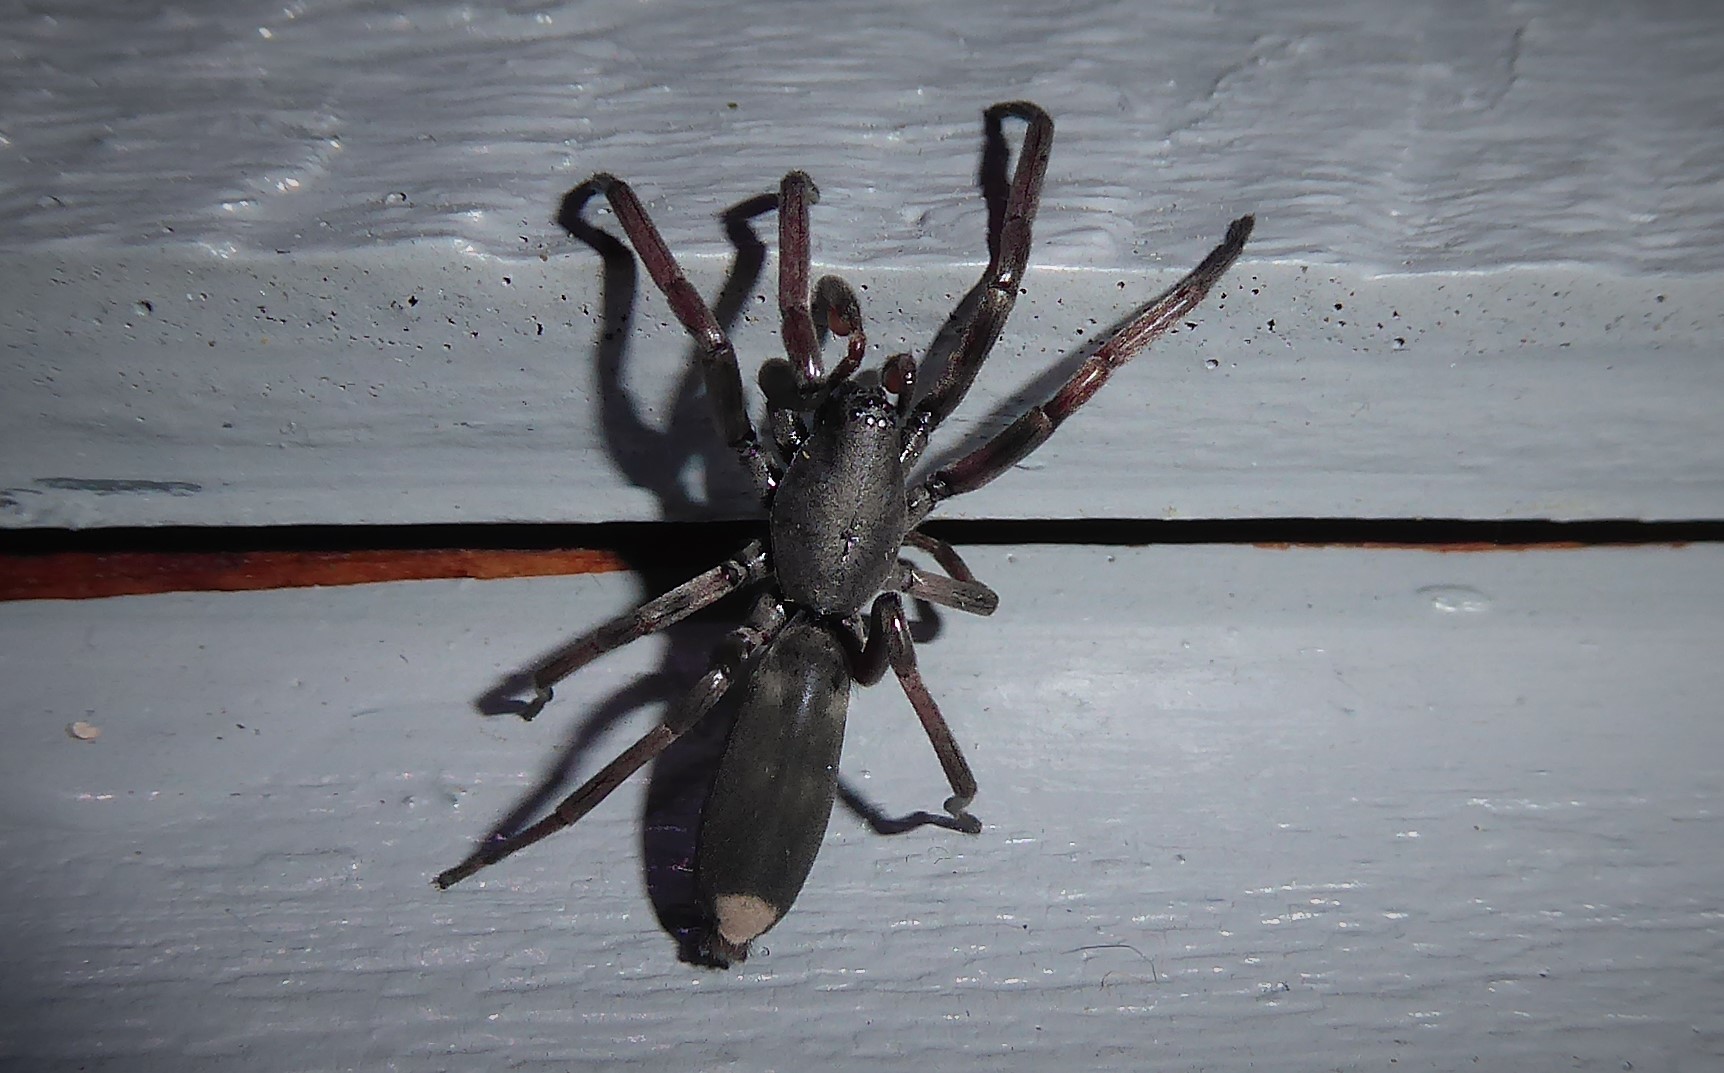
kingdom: Animalia
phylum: Arthropoda
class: Arachnida
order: Araneae
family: Lamponidae
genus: Lampona
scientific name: Lampona cylindrata
